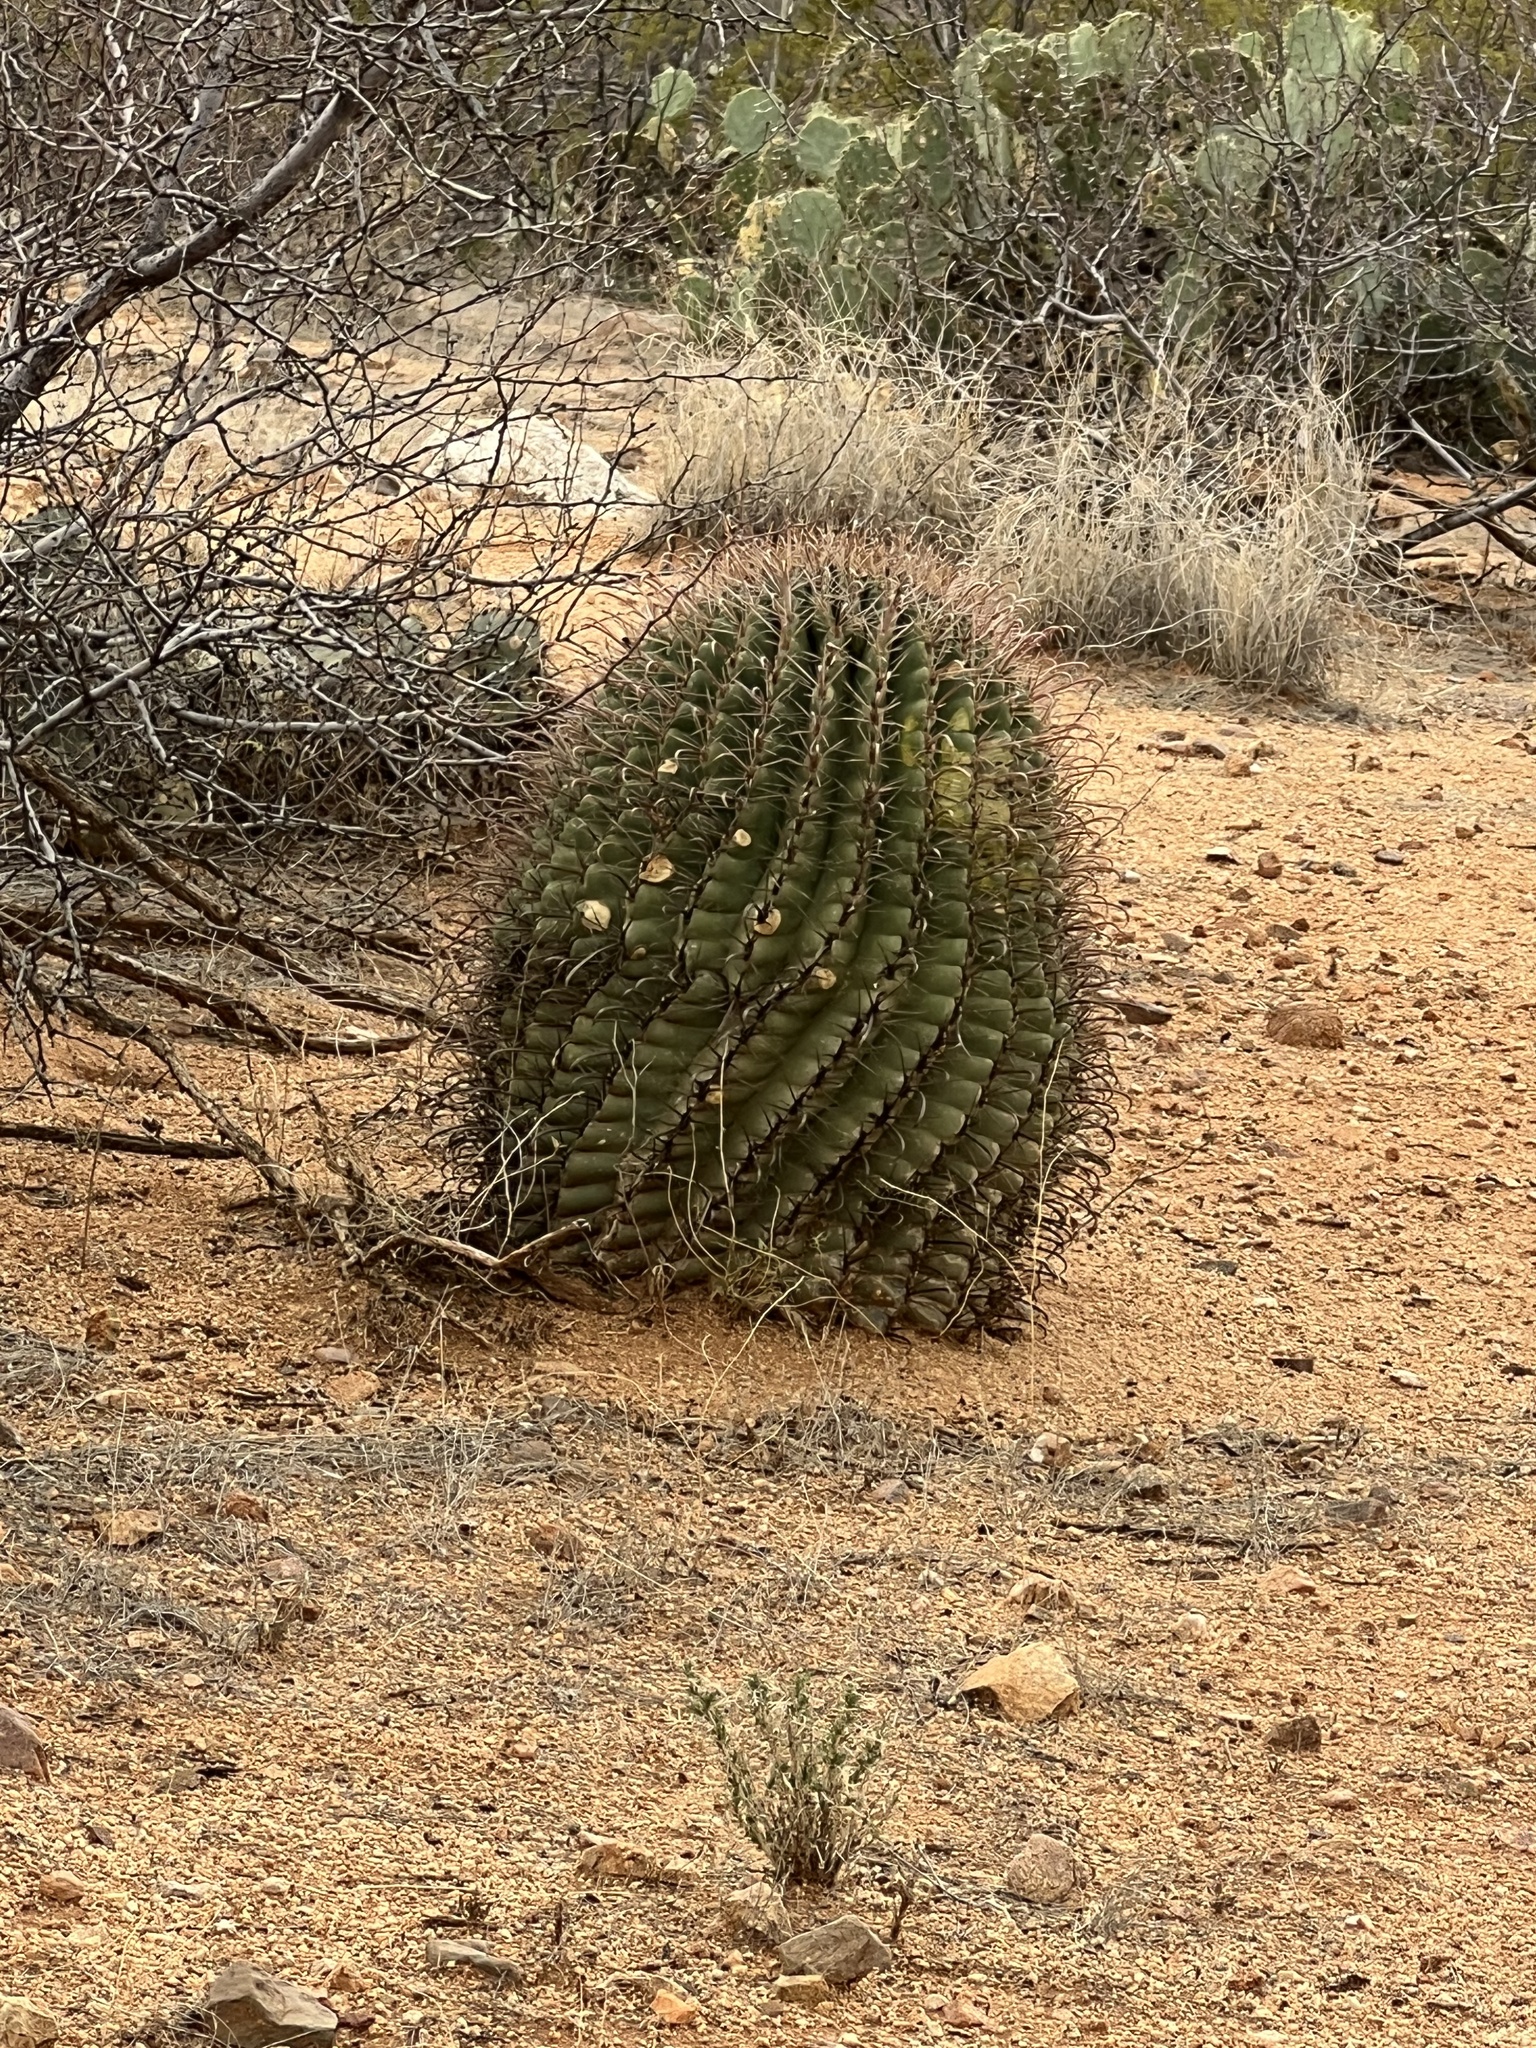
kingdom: Plantae
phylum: Tracheophyta
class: Magnoliopsida
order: Caryophyllales
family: Cactaceae
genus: Ferocactus
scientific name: Ferocactus wislizeni
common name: Candy barrel cactus
